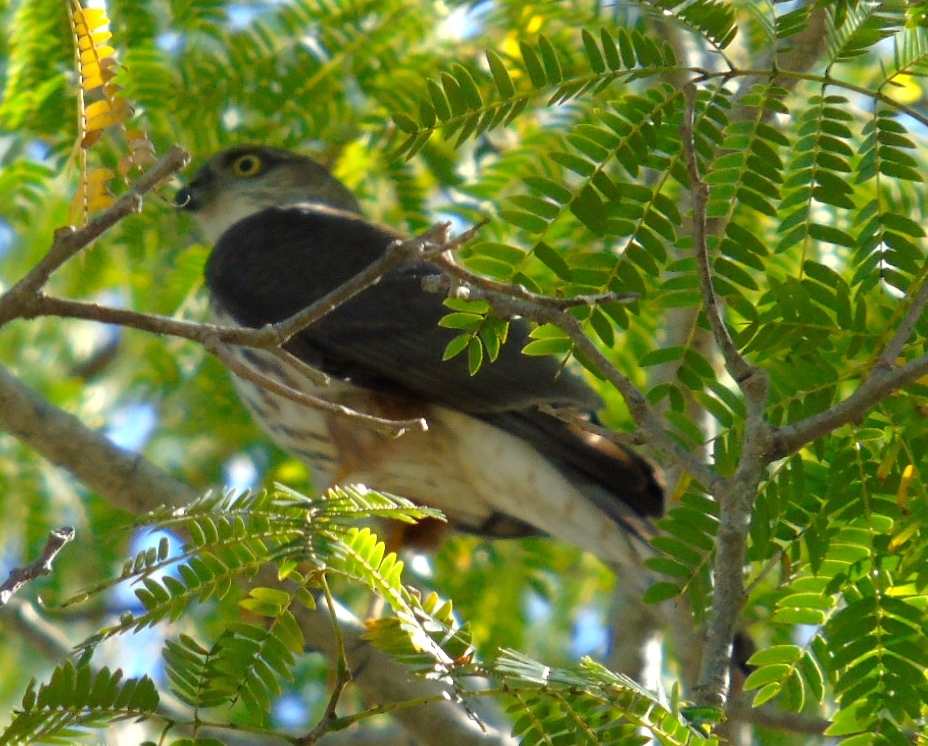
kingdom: Animalia
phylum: Chordata
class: Aves
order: Accipitriformes
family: Accipitridae
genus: Accipiter
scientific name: Accipiter striatus
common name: Sharp-shinned hawk
